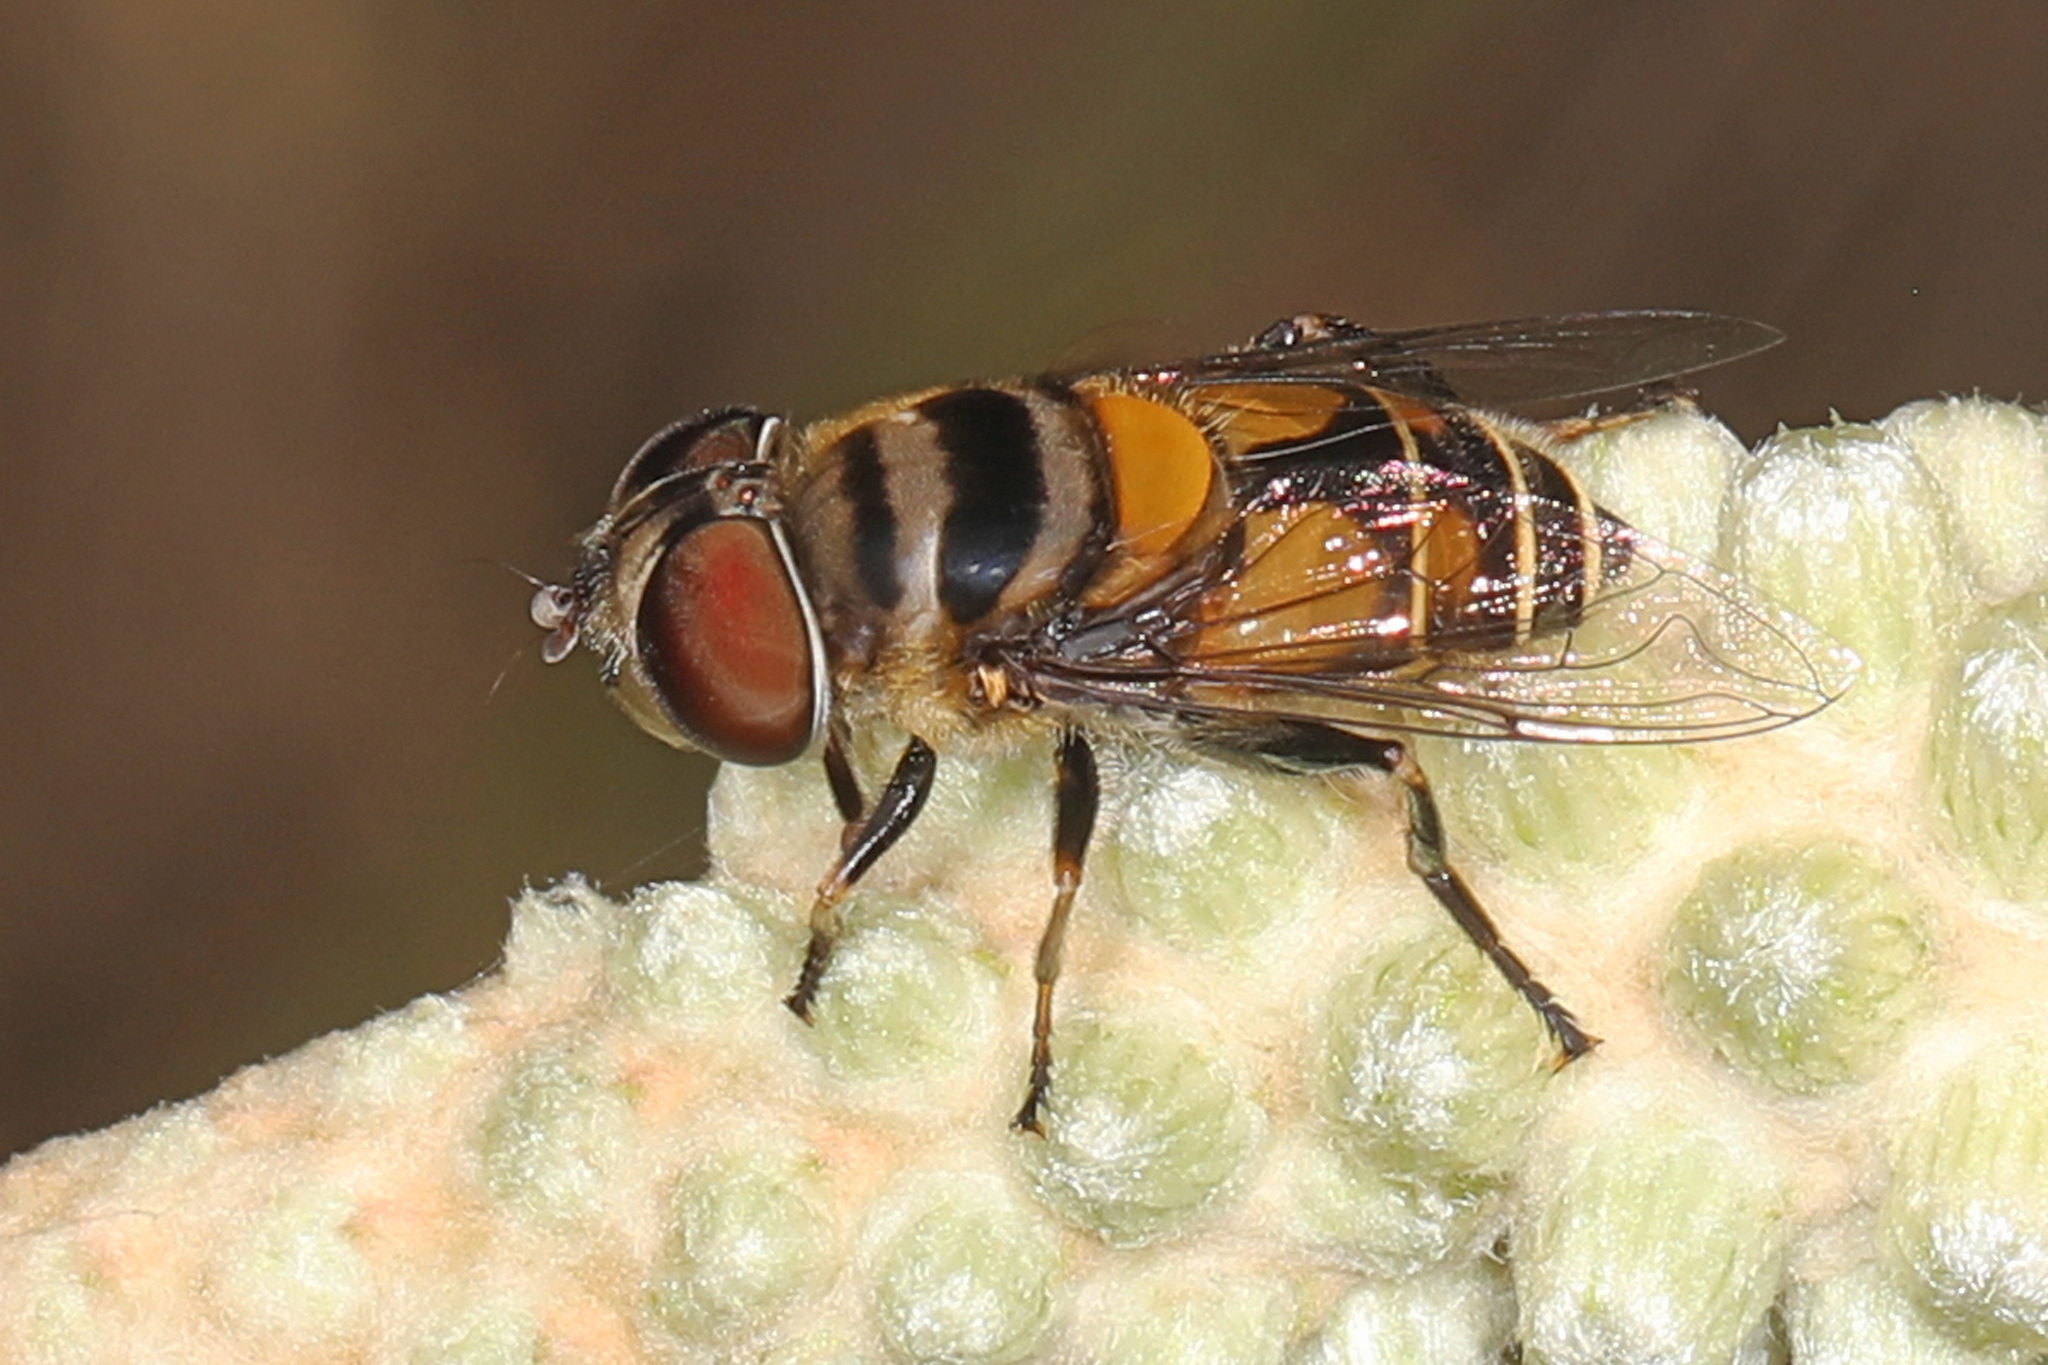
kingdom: Animalia
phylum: Arthropoda
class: Insecta
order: Diptera
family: Syrphidae
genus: Palpada
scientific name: Palpada agrorum
